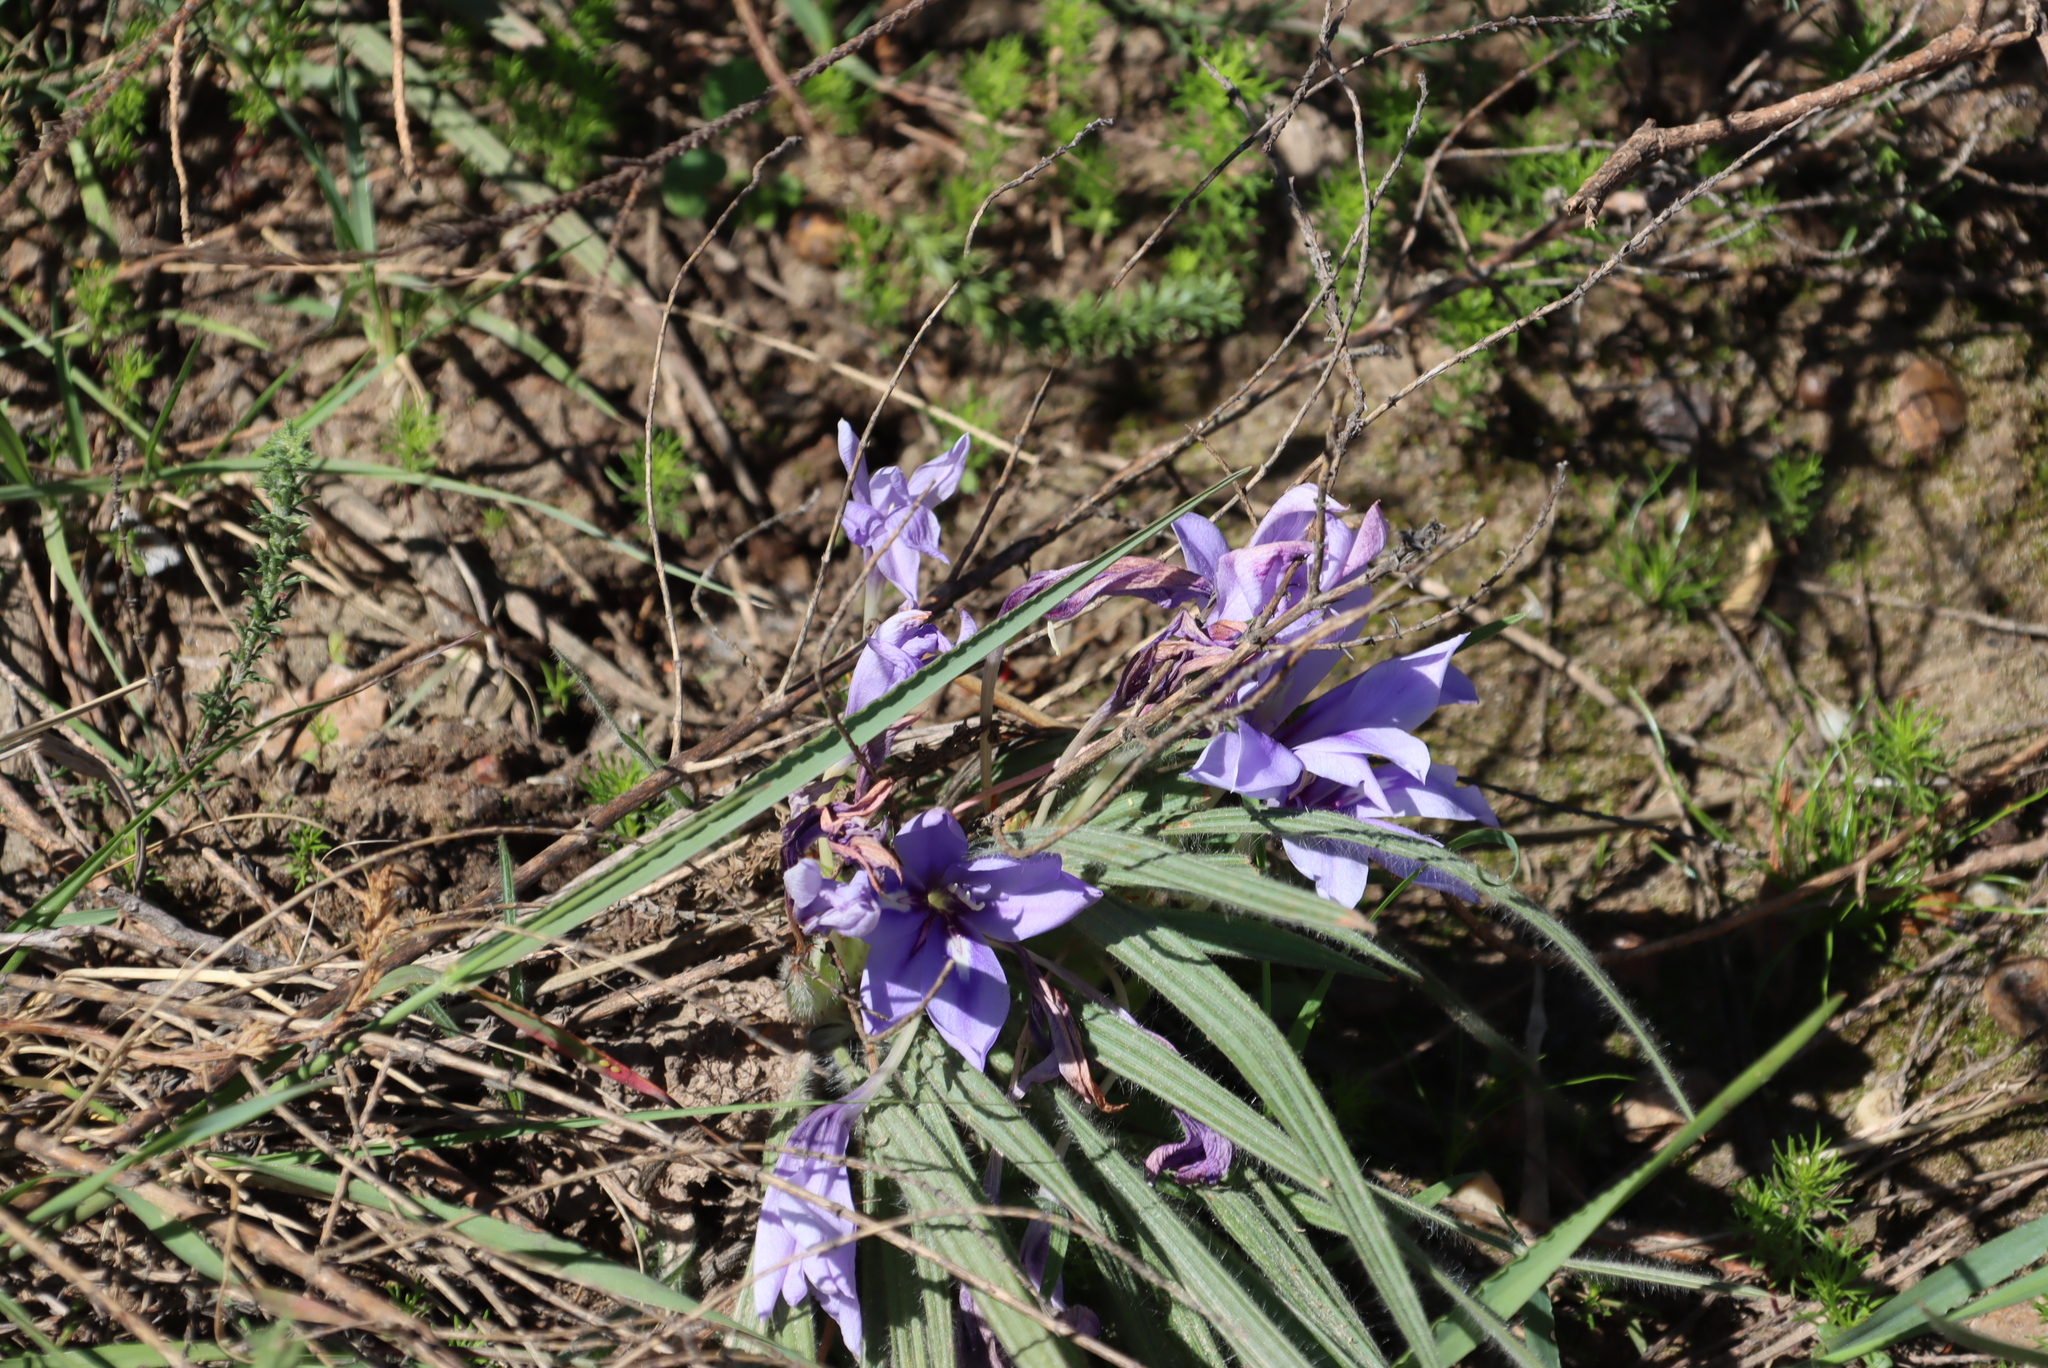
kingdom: Plantae
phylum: Tracheophyta
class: Liliopsida
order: Asparagales
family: Iridaceae
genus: Babiana
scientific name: Babiana sambucina
